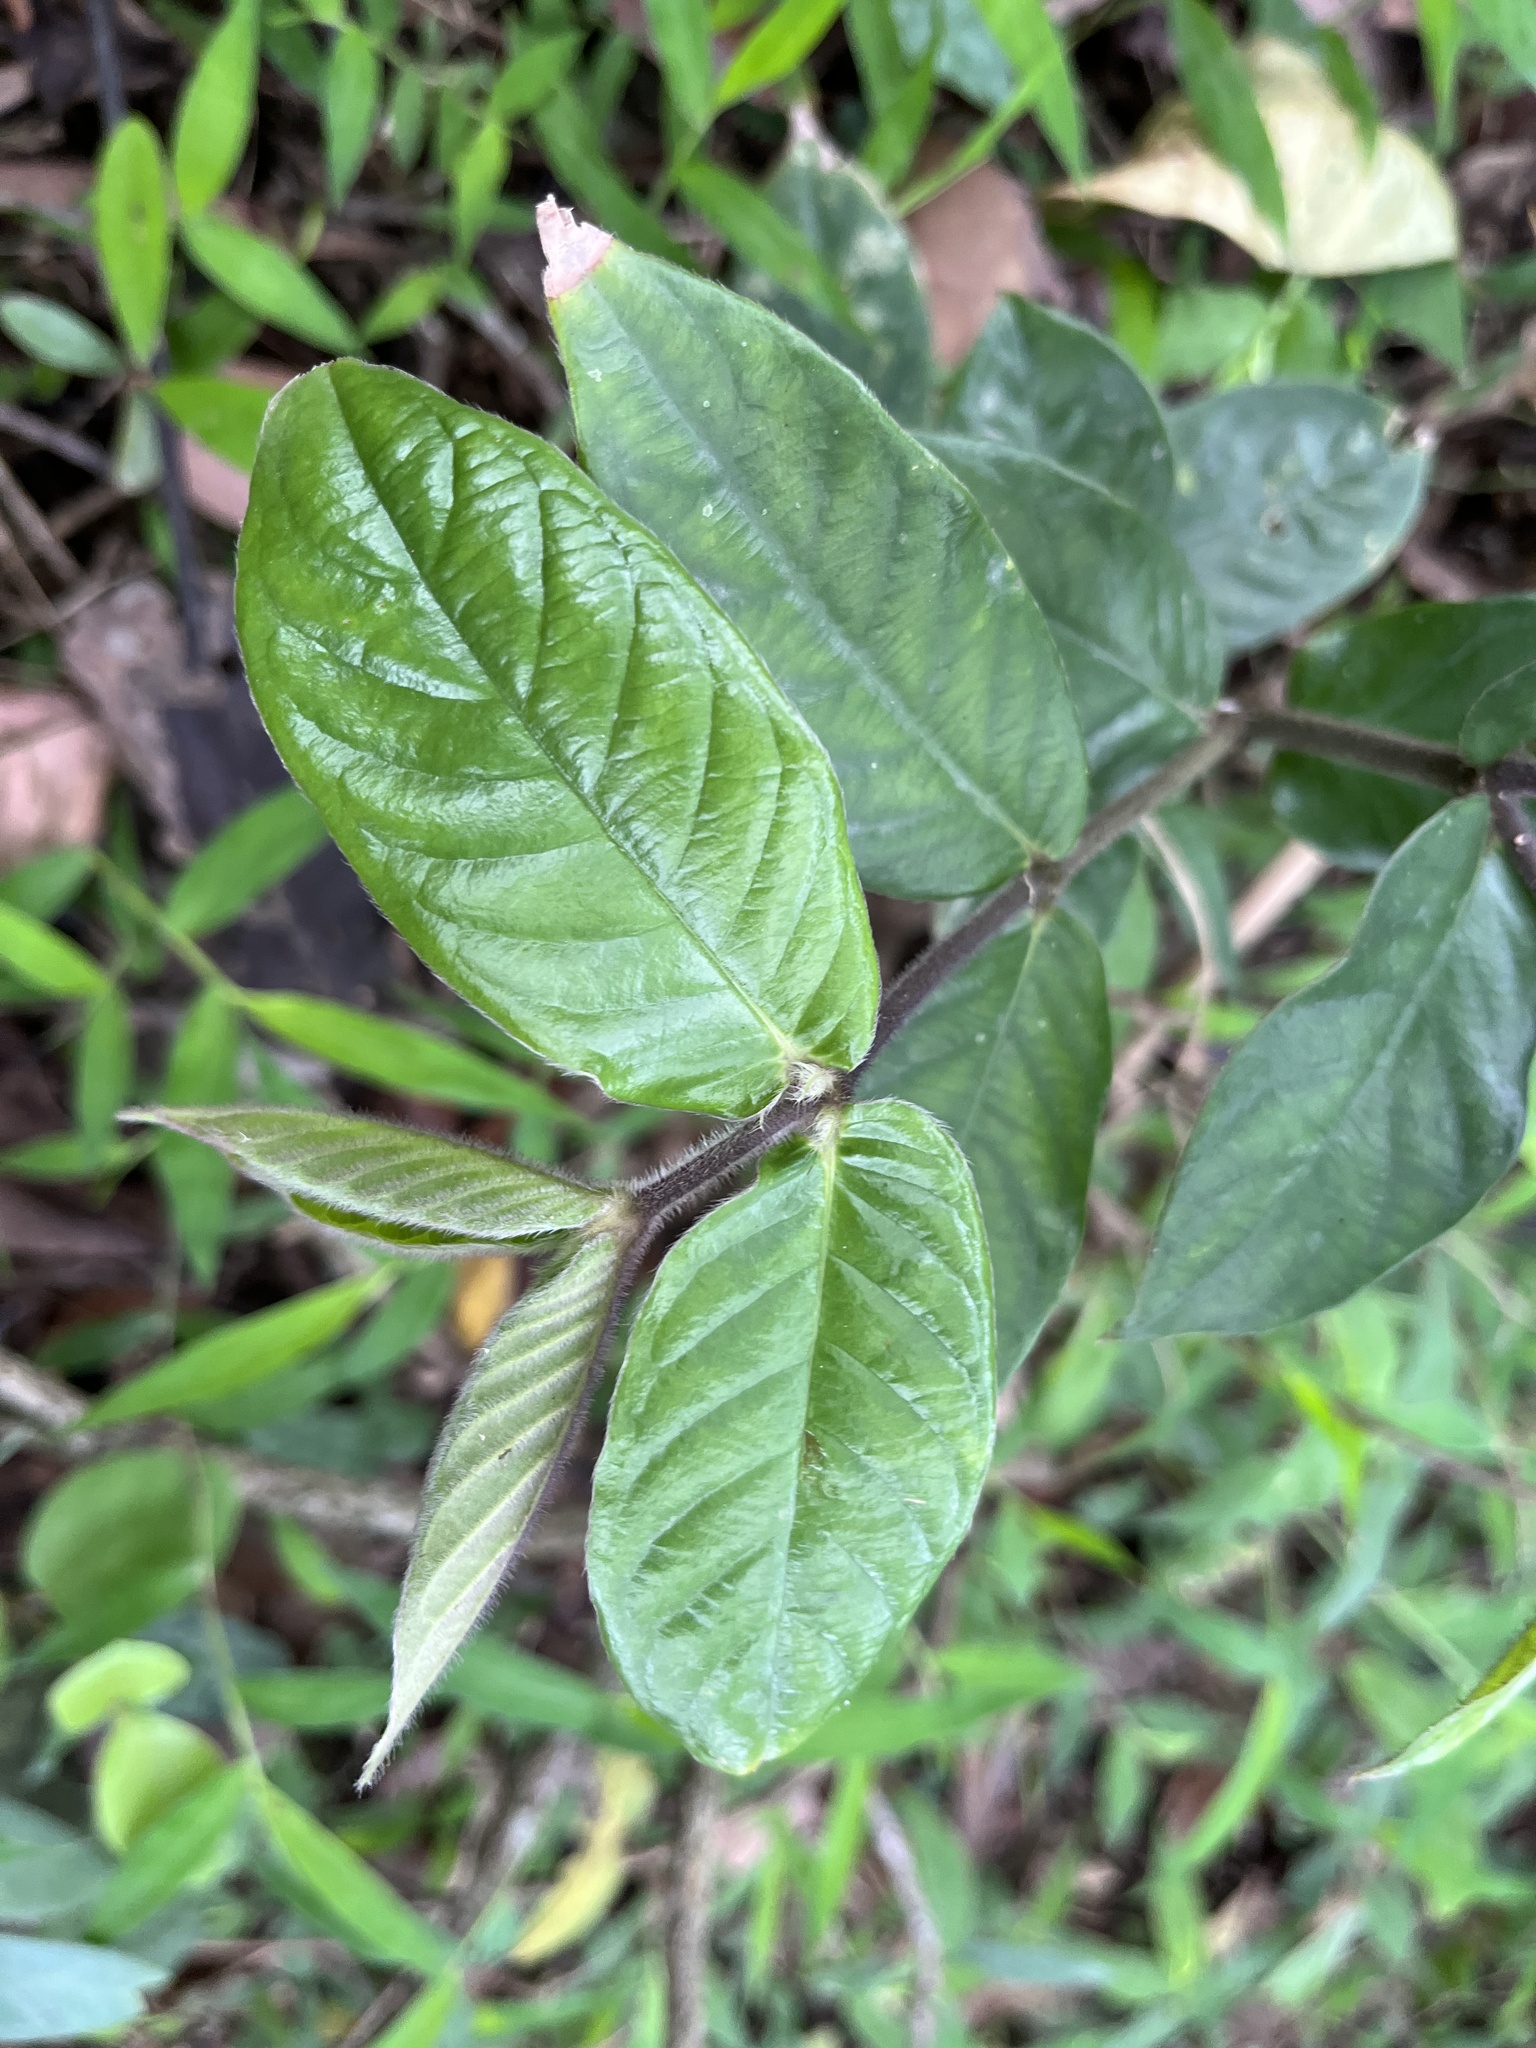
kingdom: Plantae
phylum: Tracheophyta
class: Magnoliopsida
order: Gentianales
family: Rubiaceae
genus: Lasianthus
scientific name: Lasianthus attenuatus
